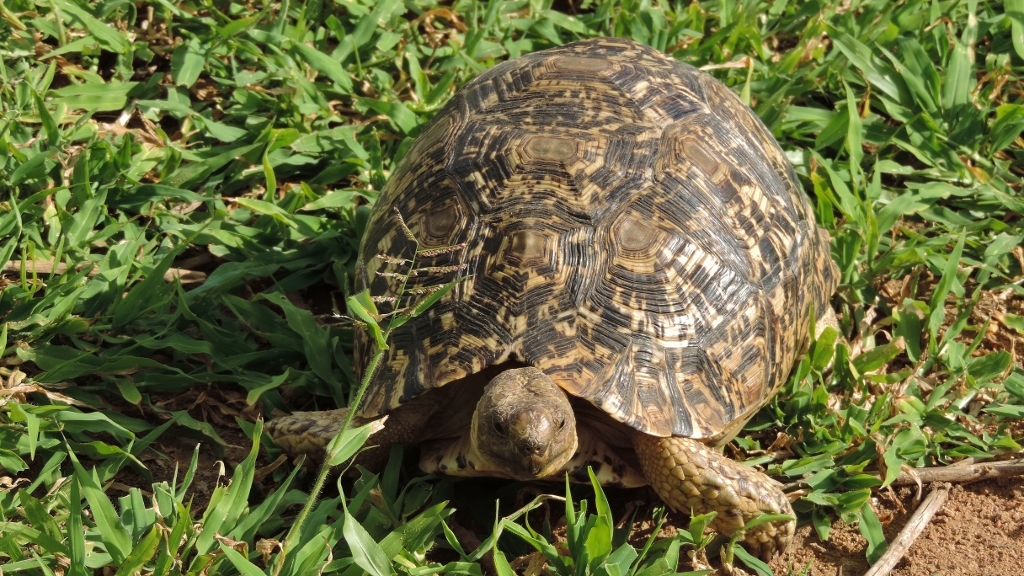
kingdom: Animalia
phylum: Chordata
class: Testudines
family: Testudinidae
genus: Stigmochelys
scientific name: Stigmochelys pardalis
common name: Leopard tortoise
